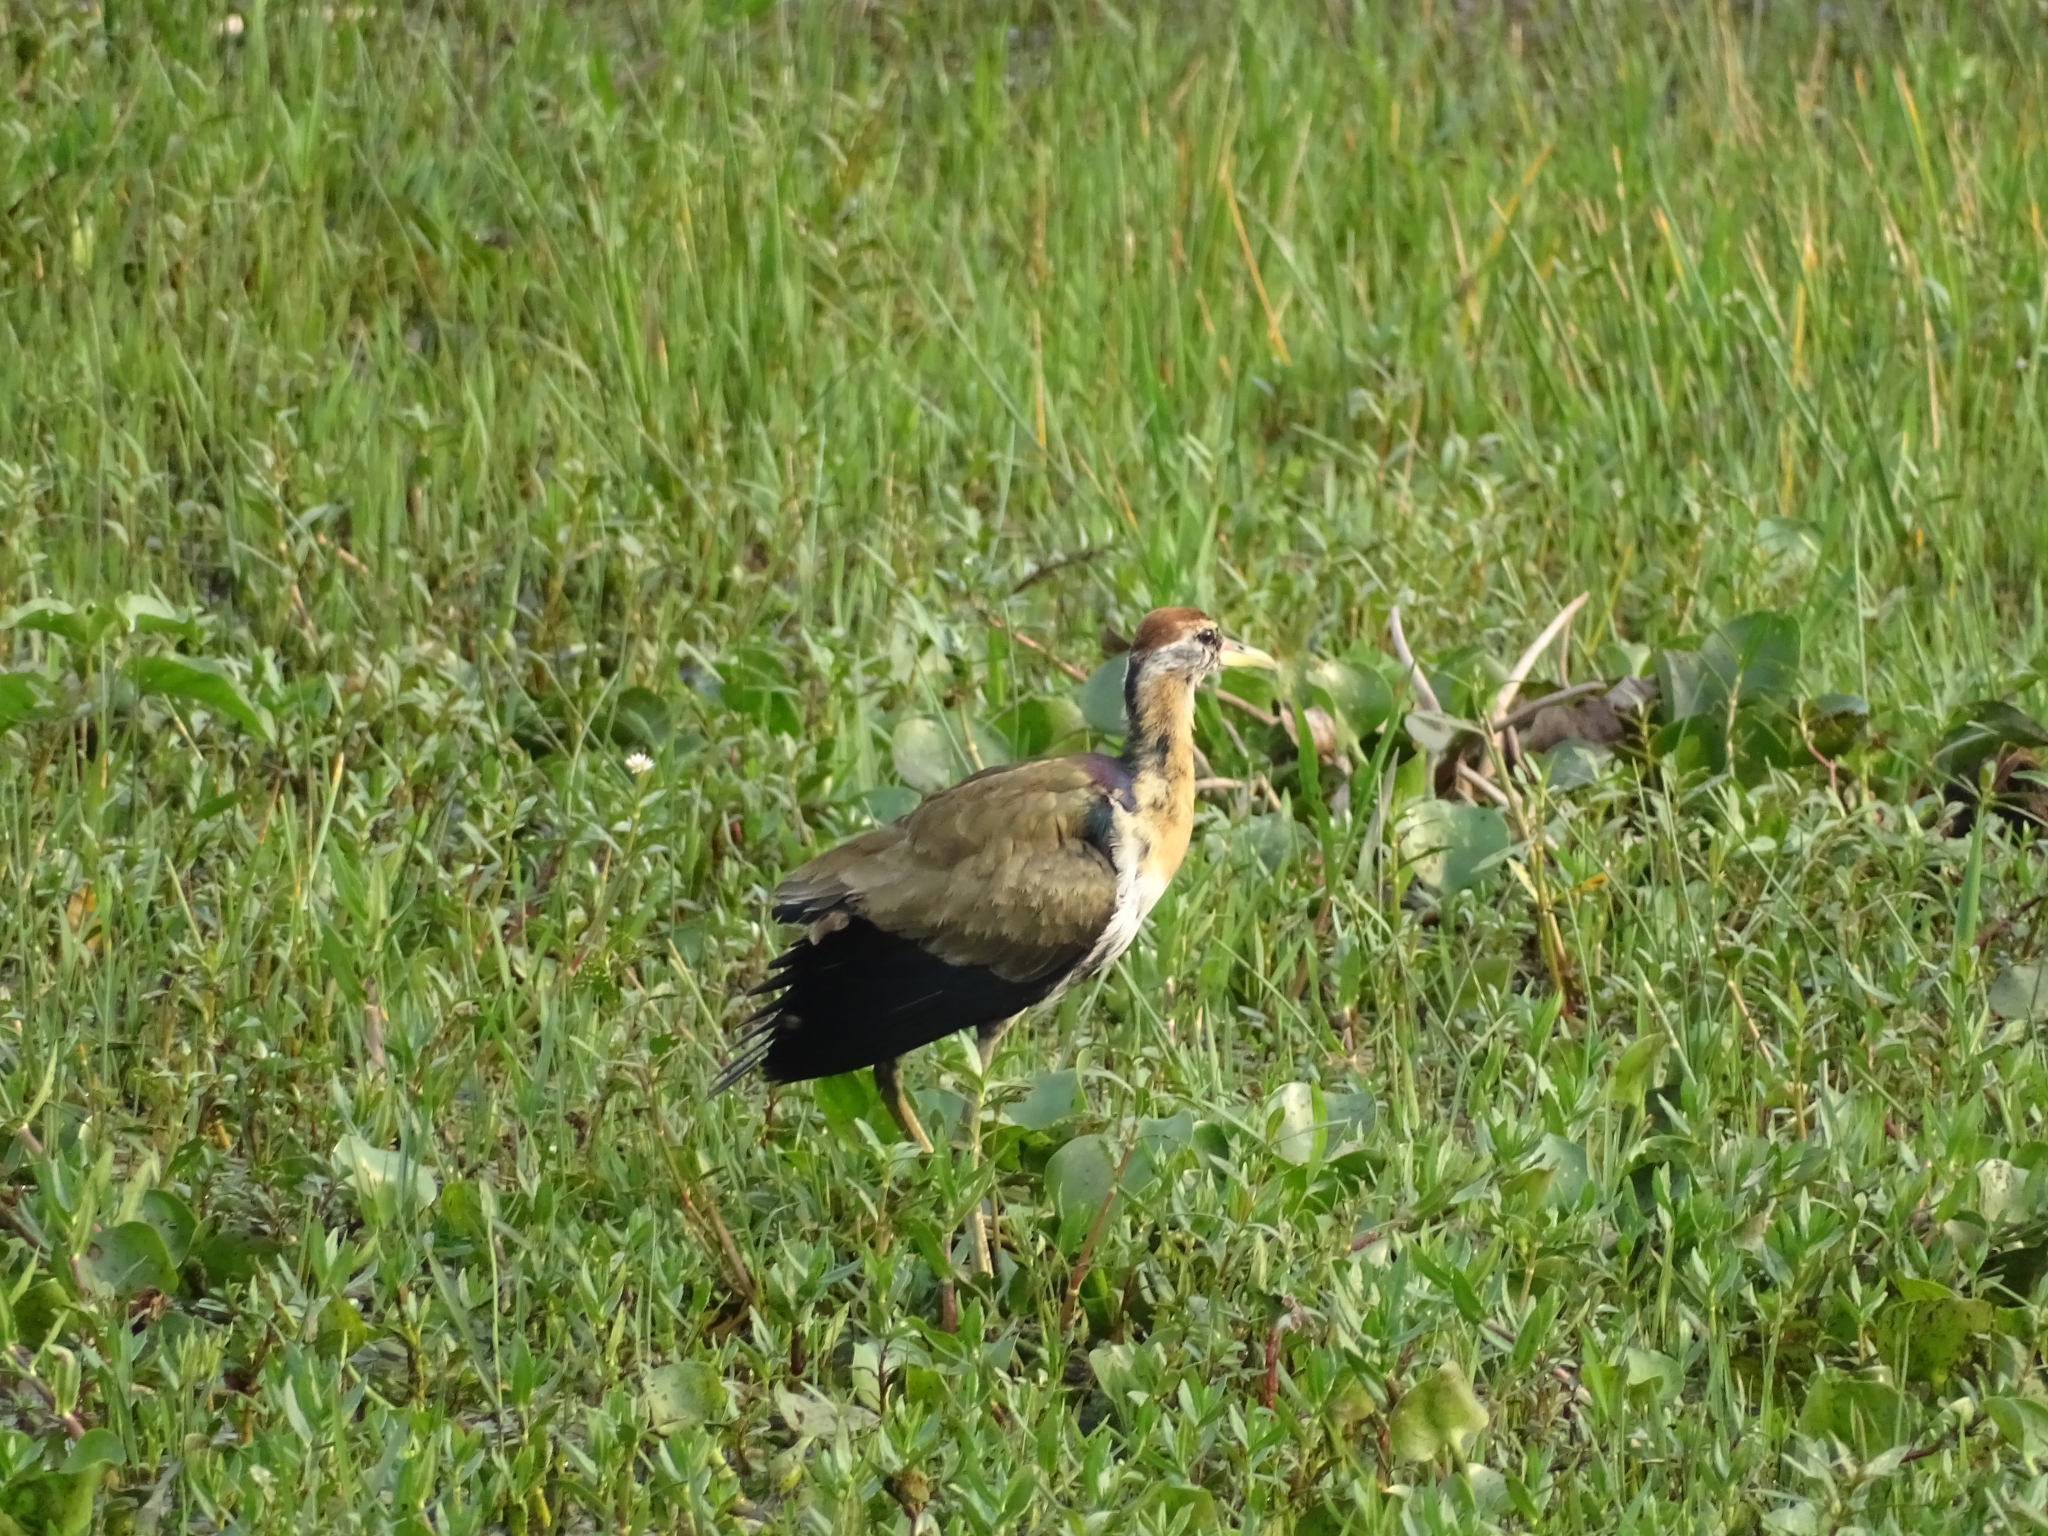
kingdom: Animalia
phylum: Chordata
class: Aves
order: Charadriiformes
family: Jacanidae
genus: Metopidius
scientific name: Metopidius indicus
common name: Bronze-winged jacana
